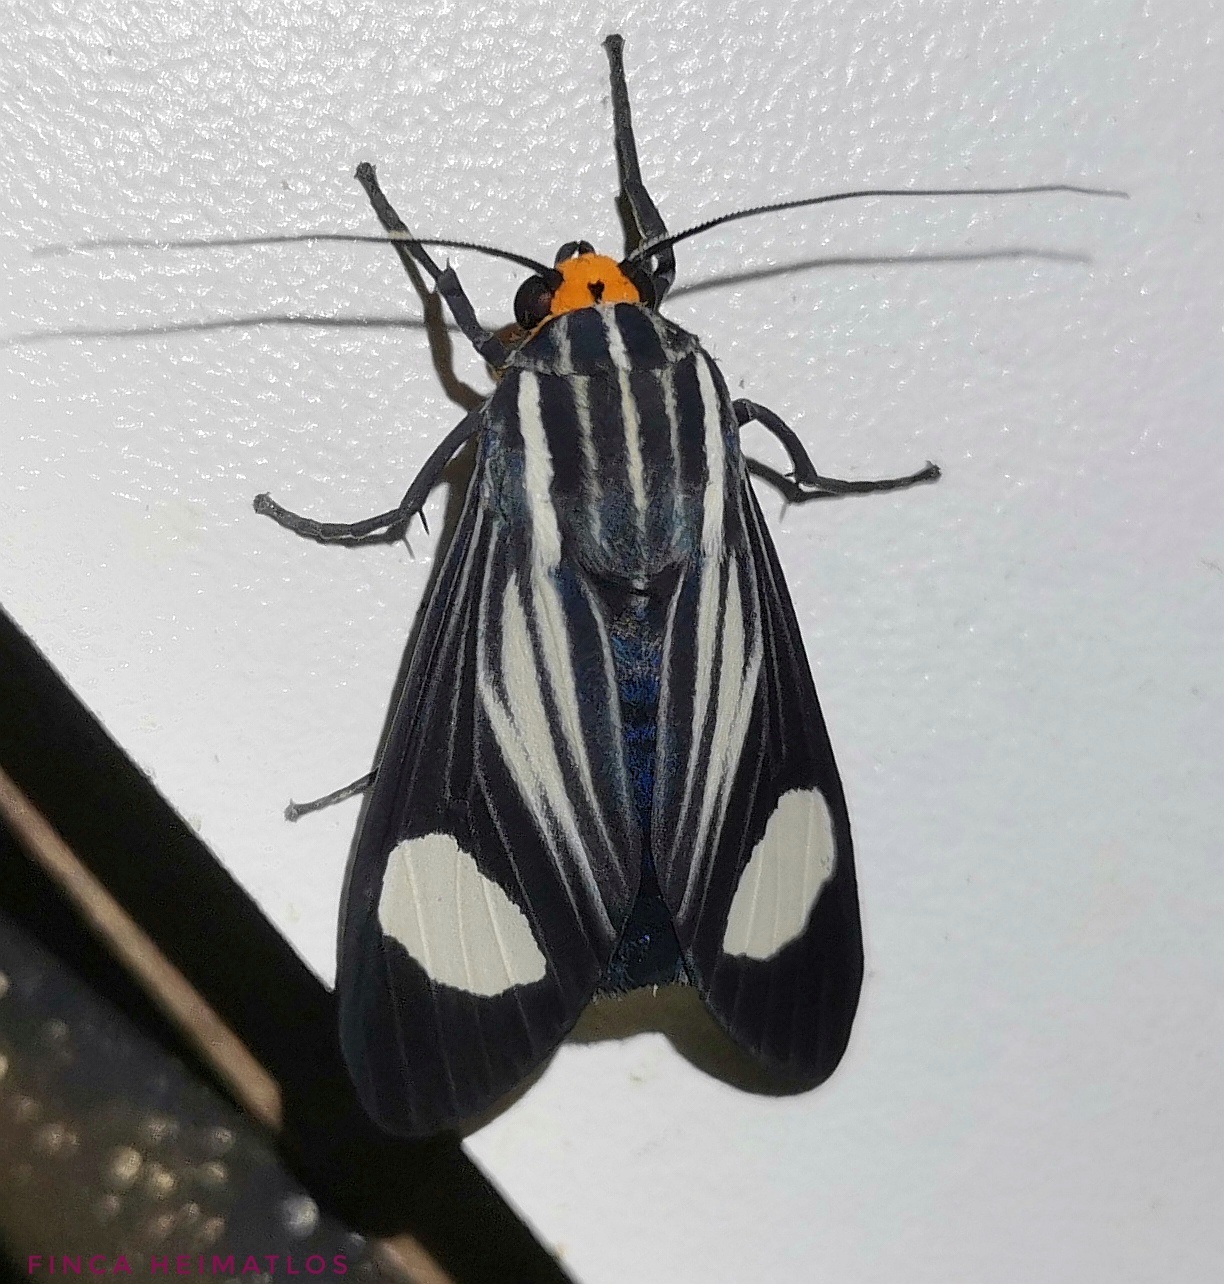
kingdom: Animalia
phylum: Arthropoda
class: Insecta
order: Lepidoptera
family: Erebidae
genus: Rhipha
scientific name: Rhipha niveomaculata
